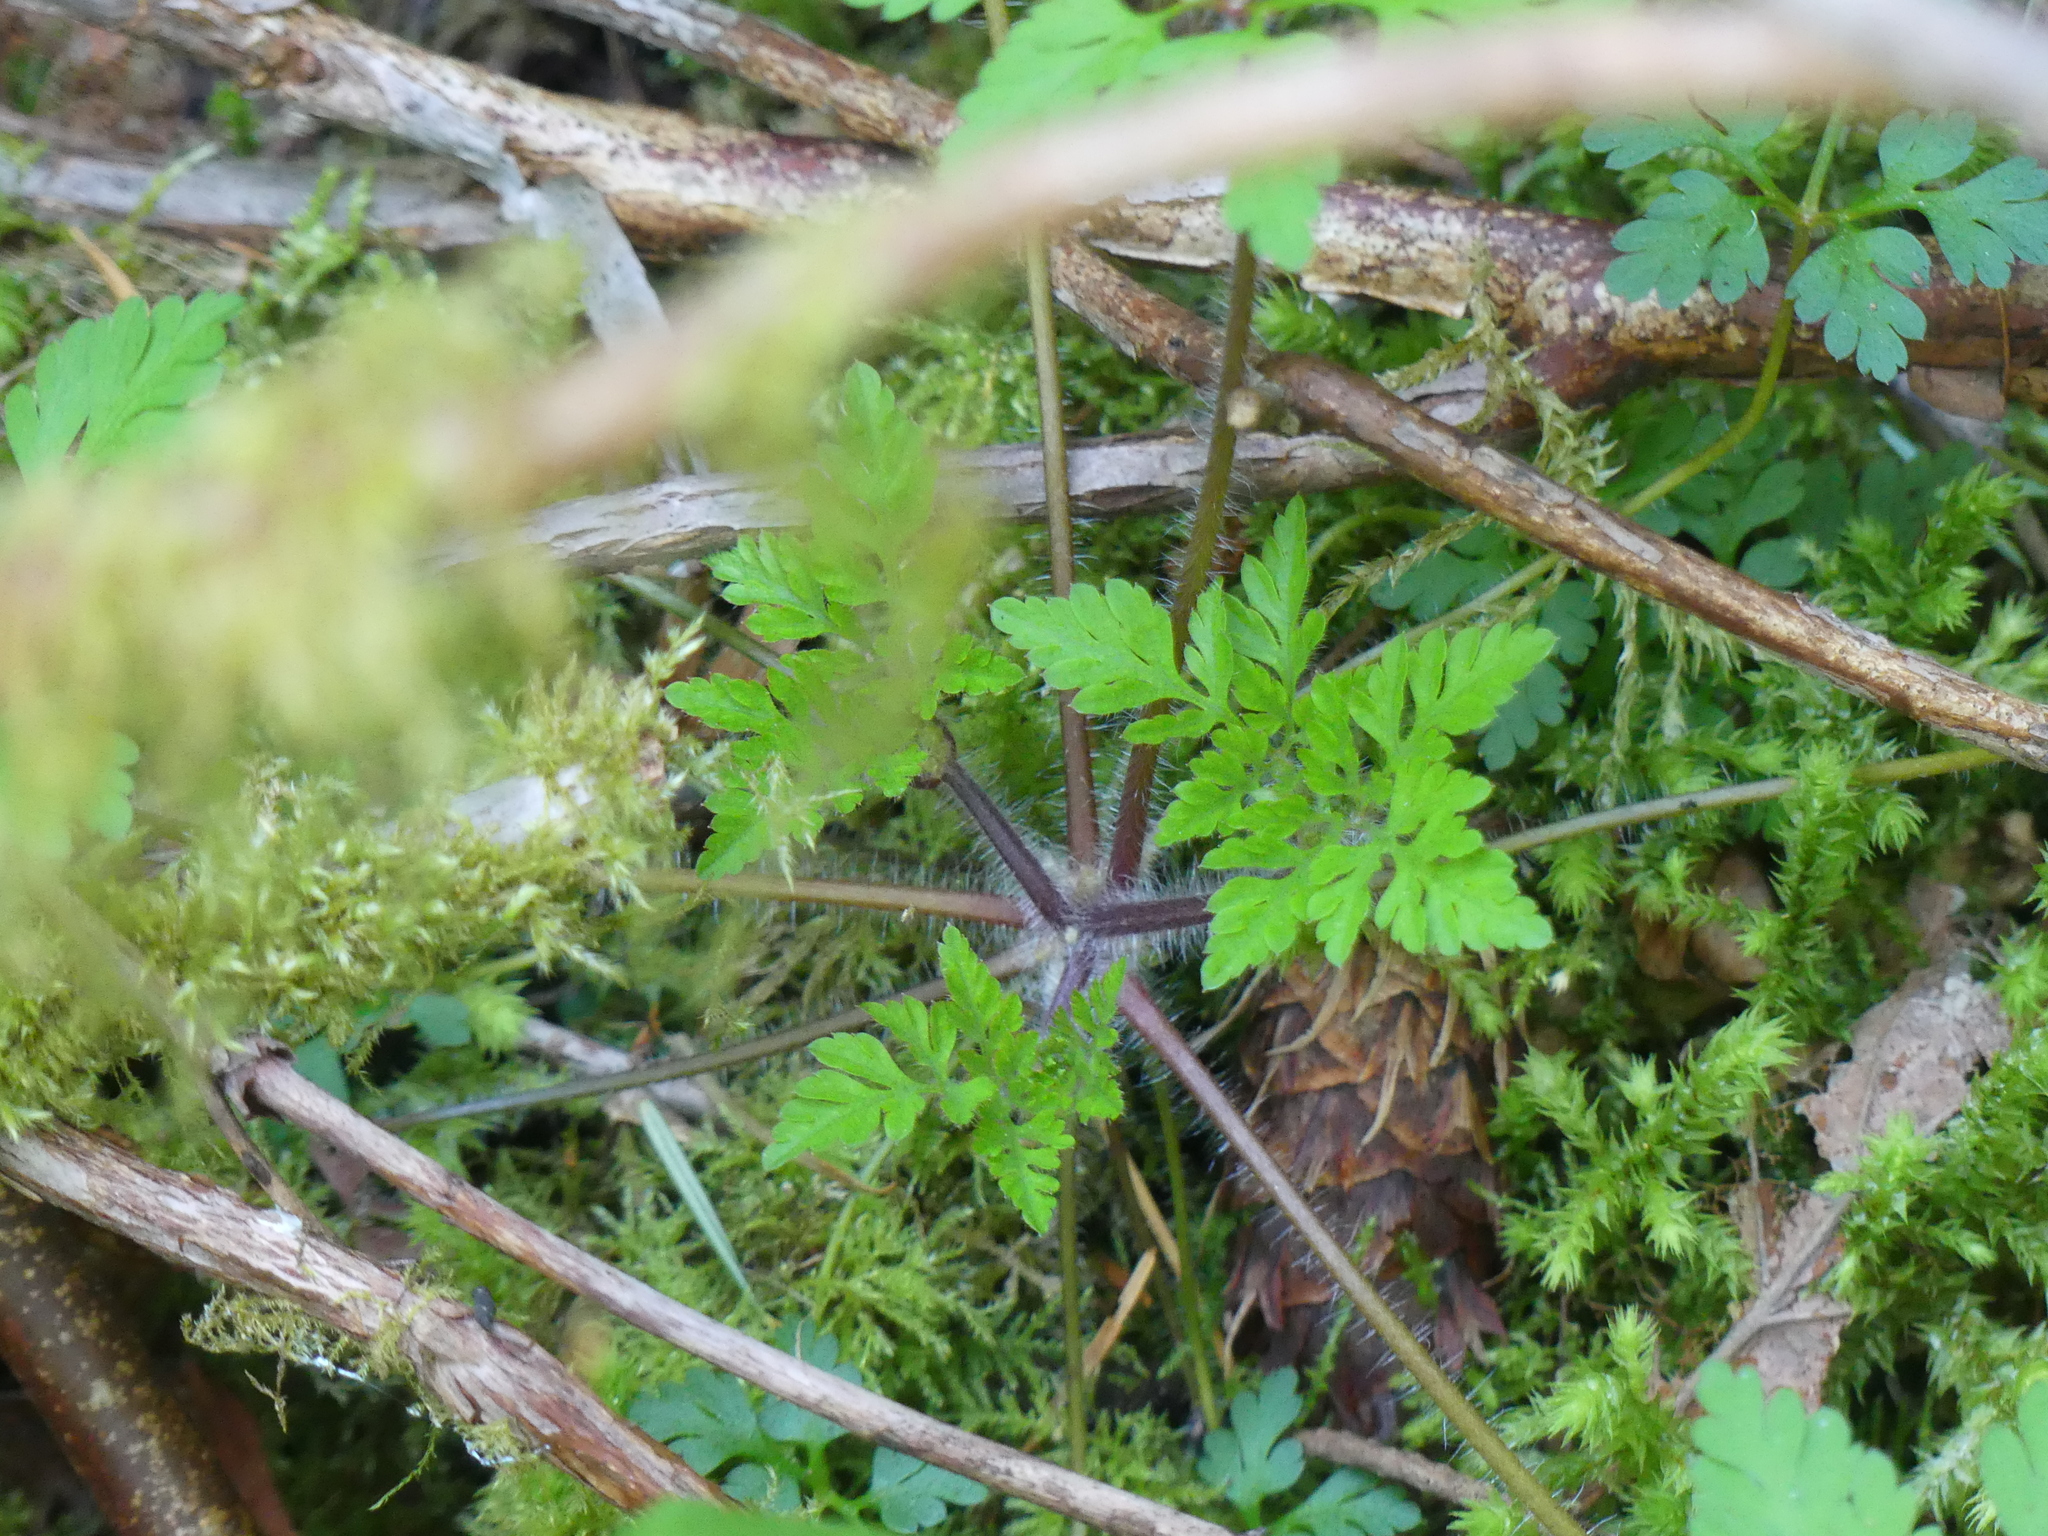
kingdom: Plantae
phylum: Tracheophyta
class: Magnoliopsida
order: Geraniales
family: Geraniaceae
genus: Geranium
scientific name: Geranium robertianum
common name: Herb-robert
